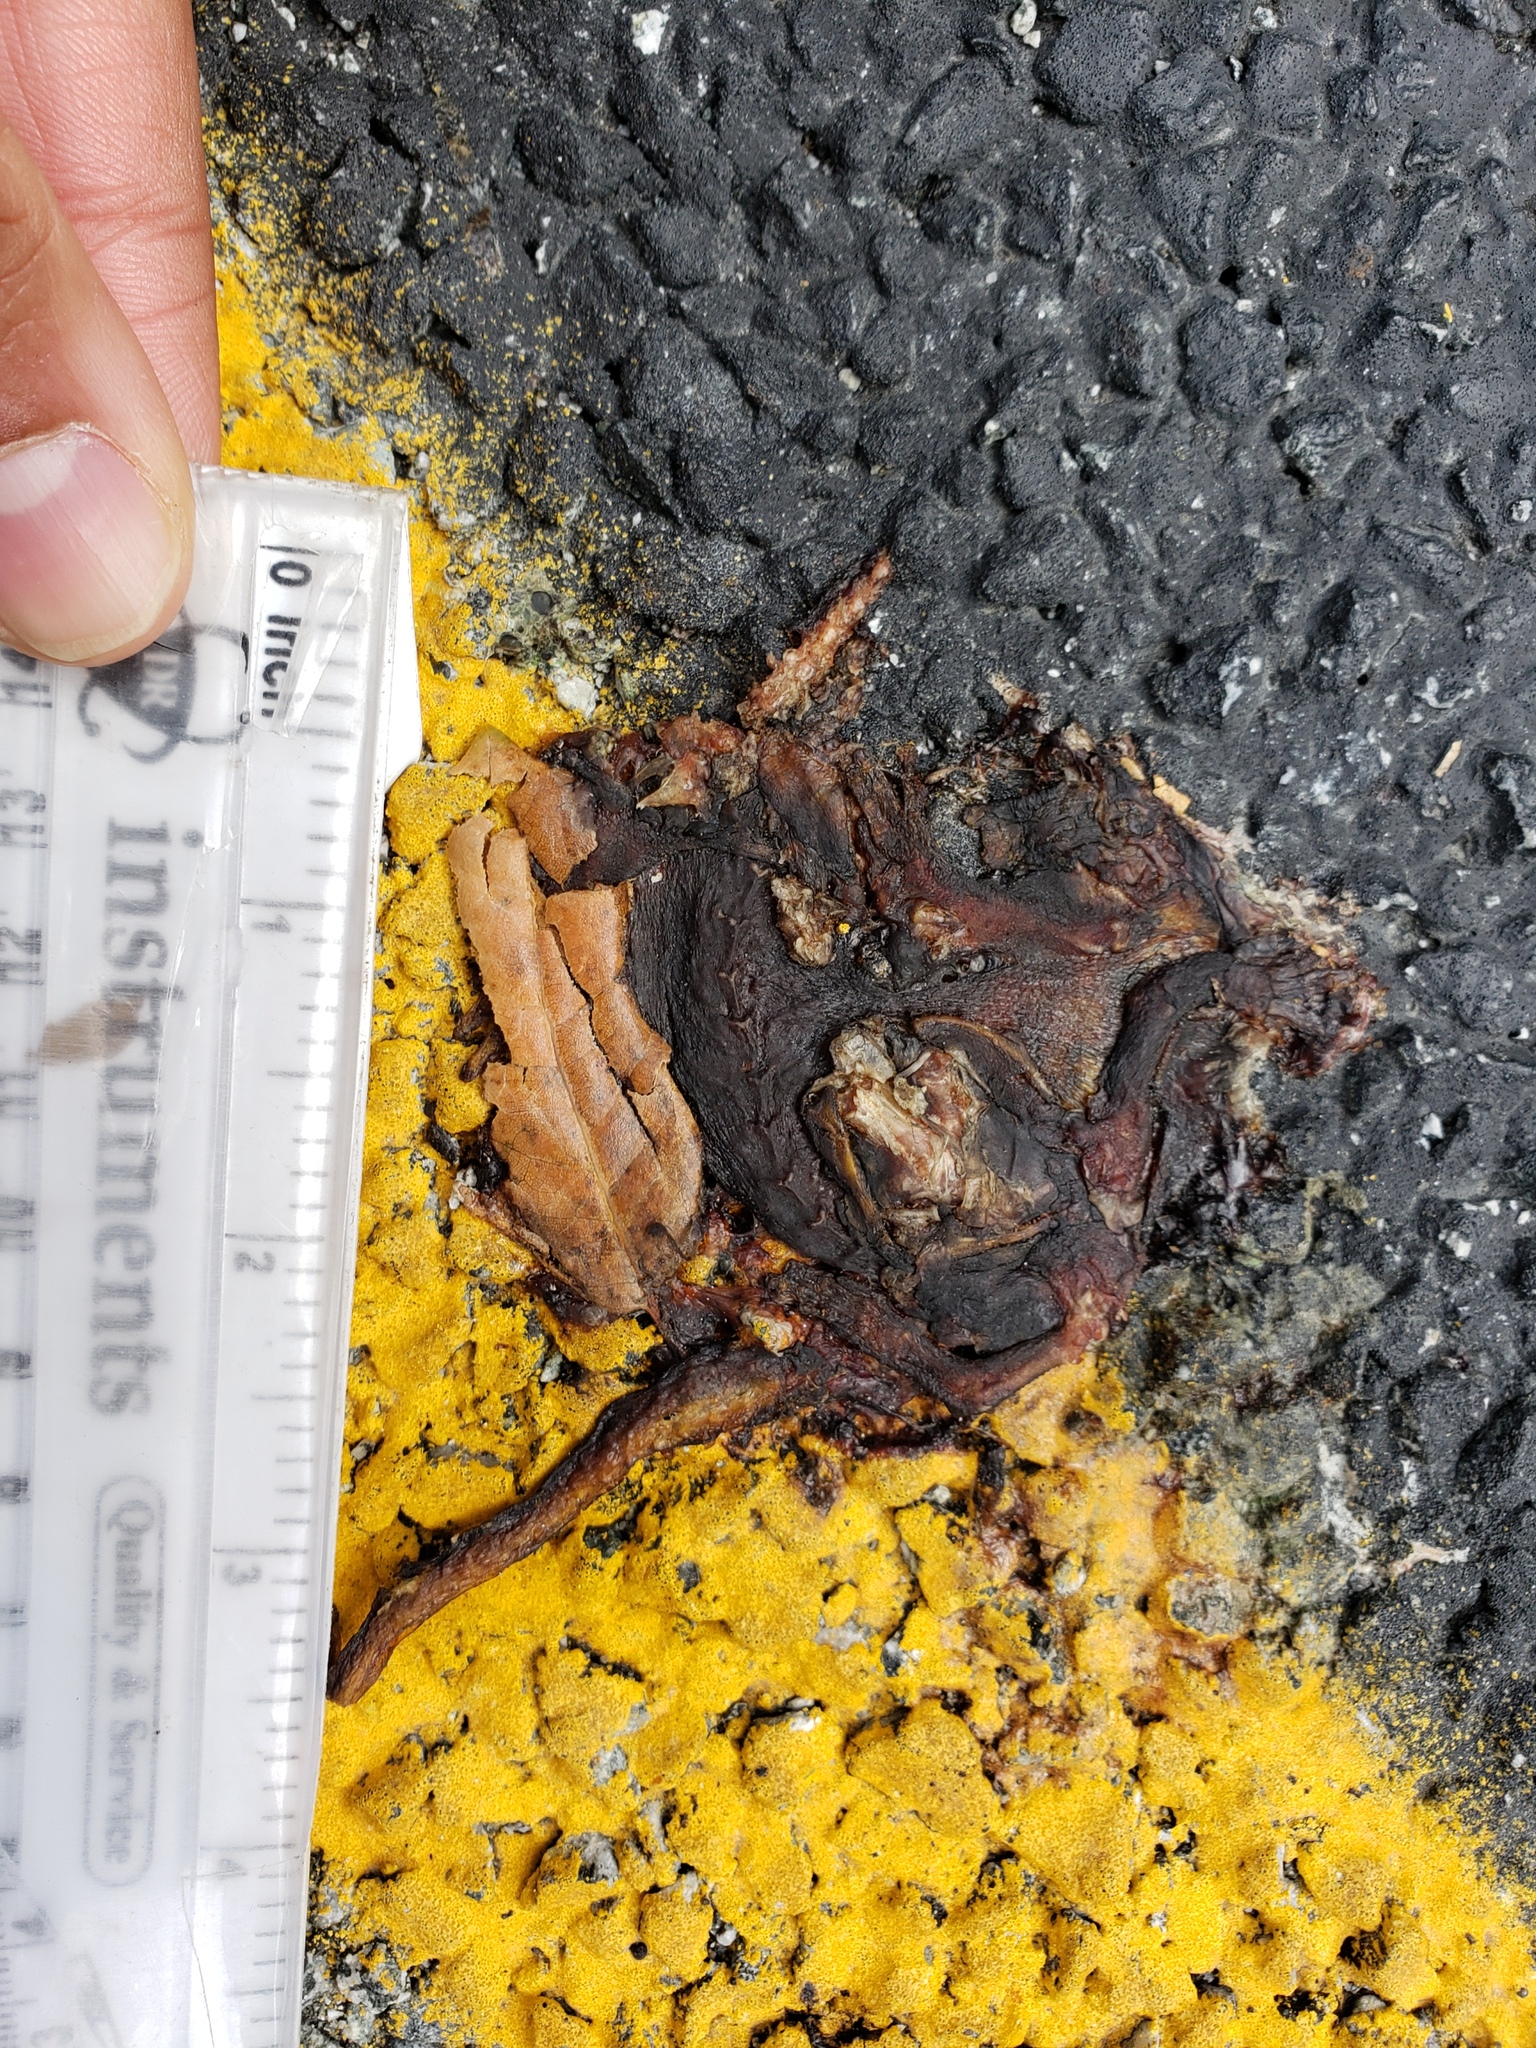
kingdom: Animalia
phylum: Chordata
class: Amphibia
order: Caudata
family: Salamandridae
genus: Taricha
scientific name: Taricha
